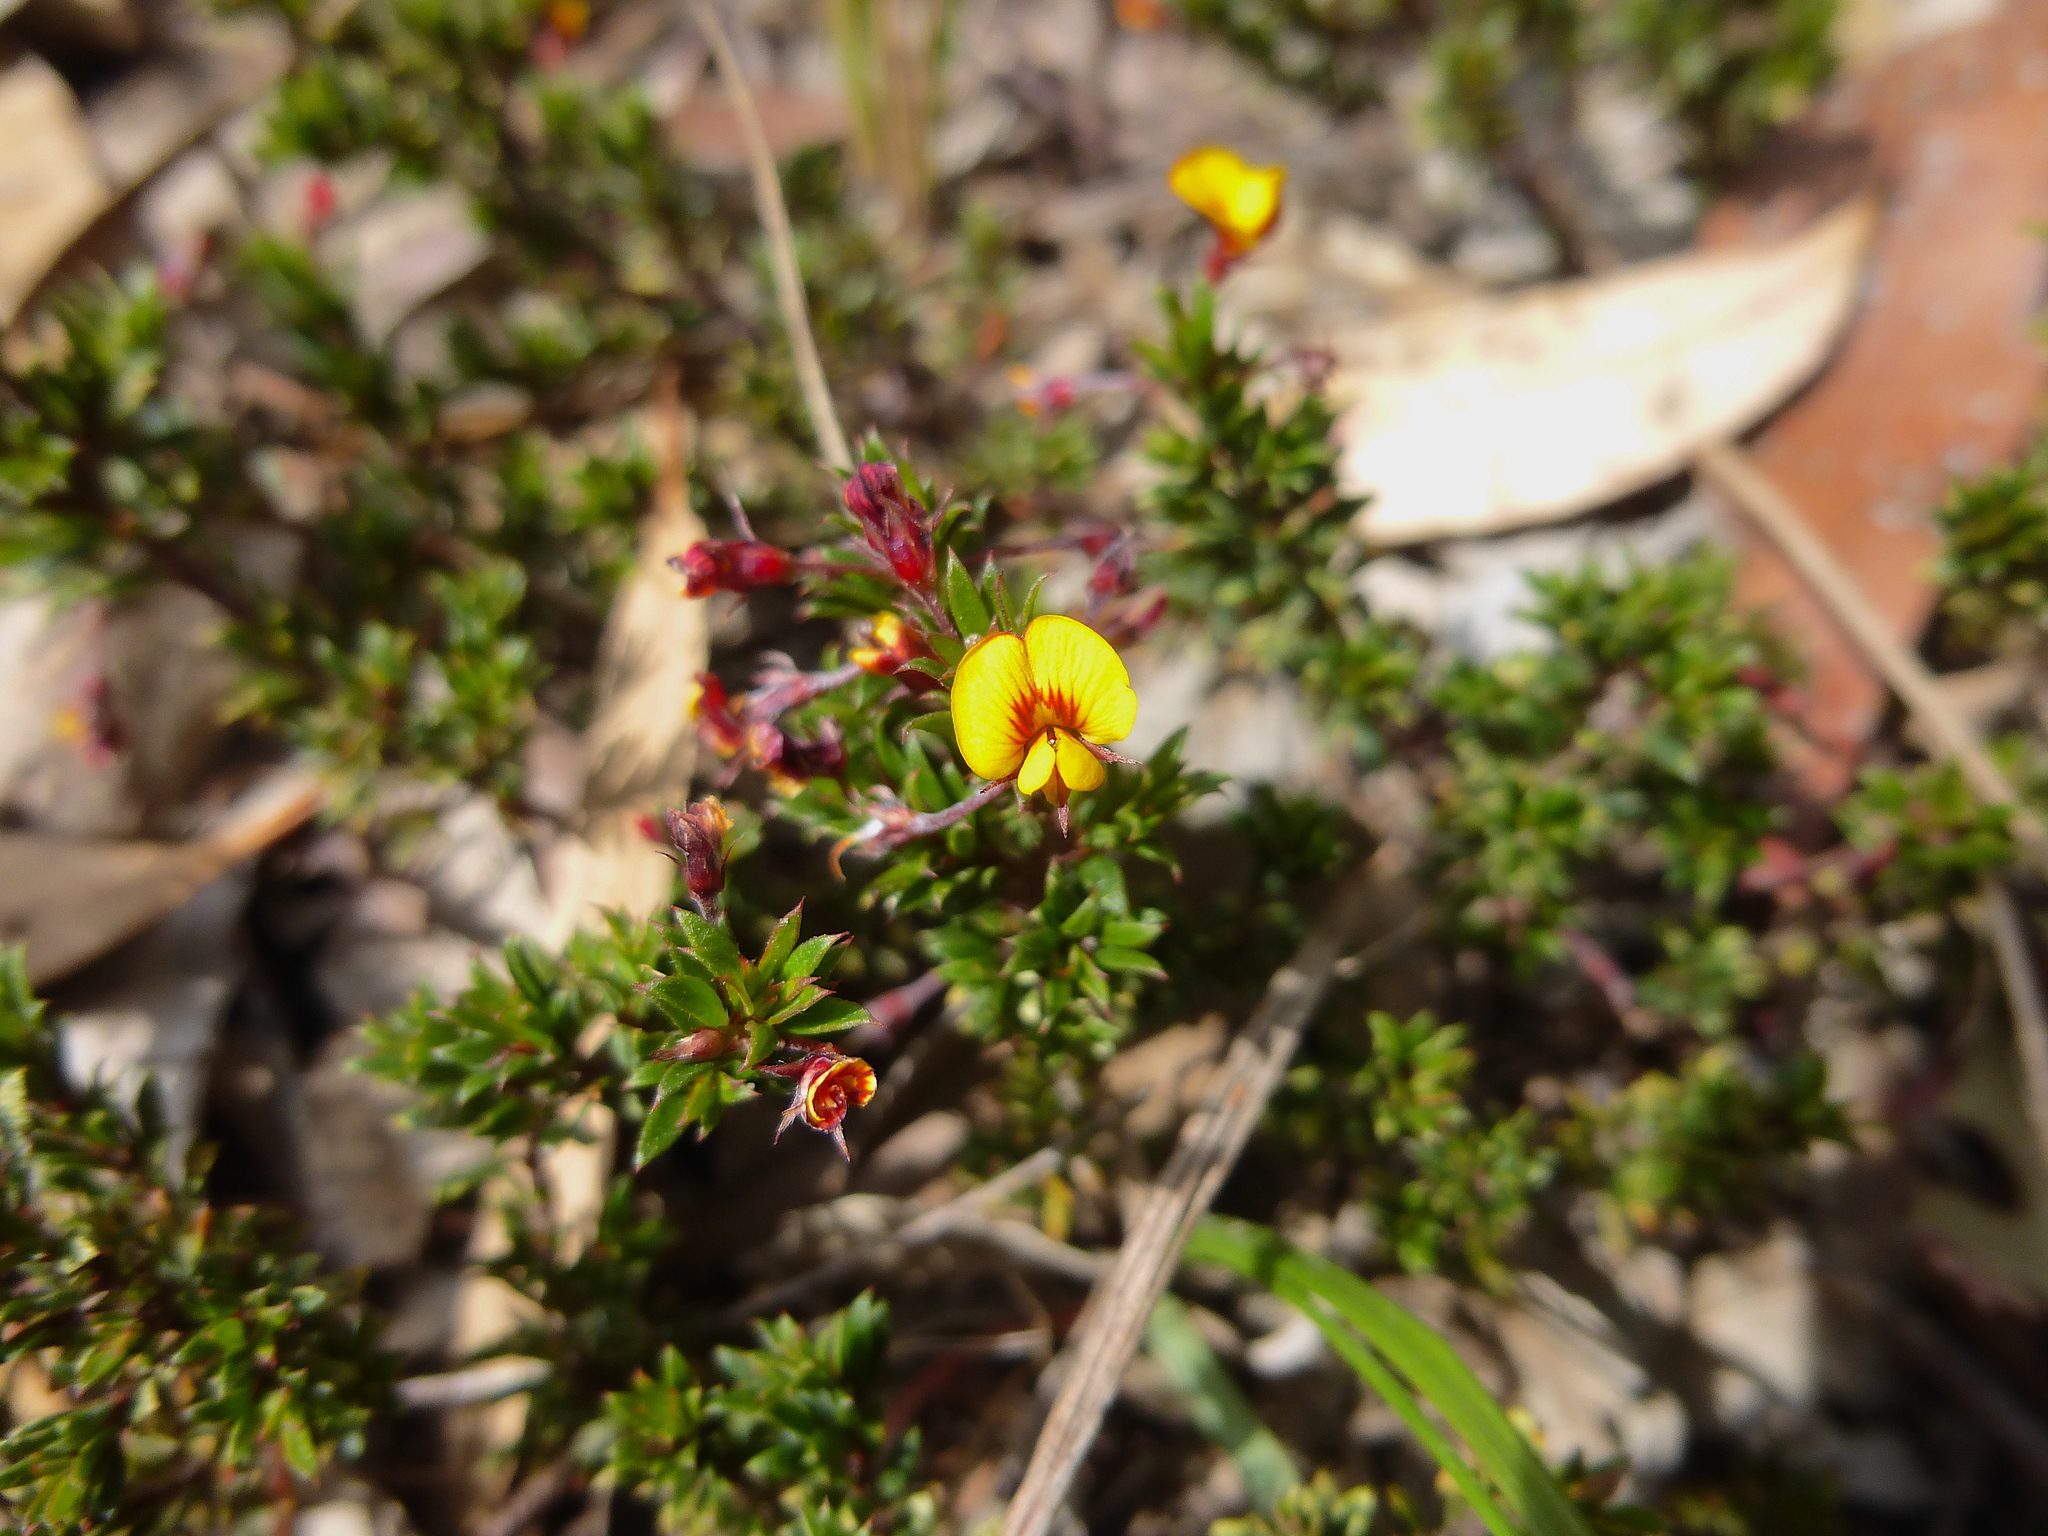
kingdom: Plantae
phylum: Tracheophyta
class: Magnoliopsida
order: Fabales
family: Fabaceae
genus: Pultenaea
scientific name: Pultenaea pedunculata
